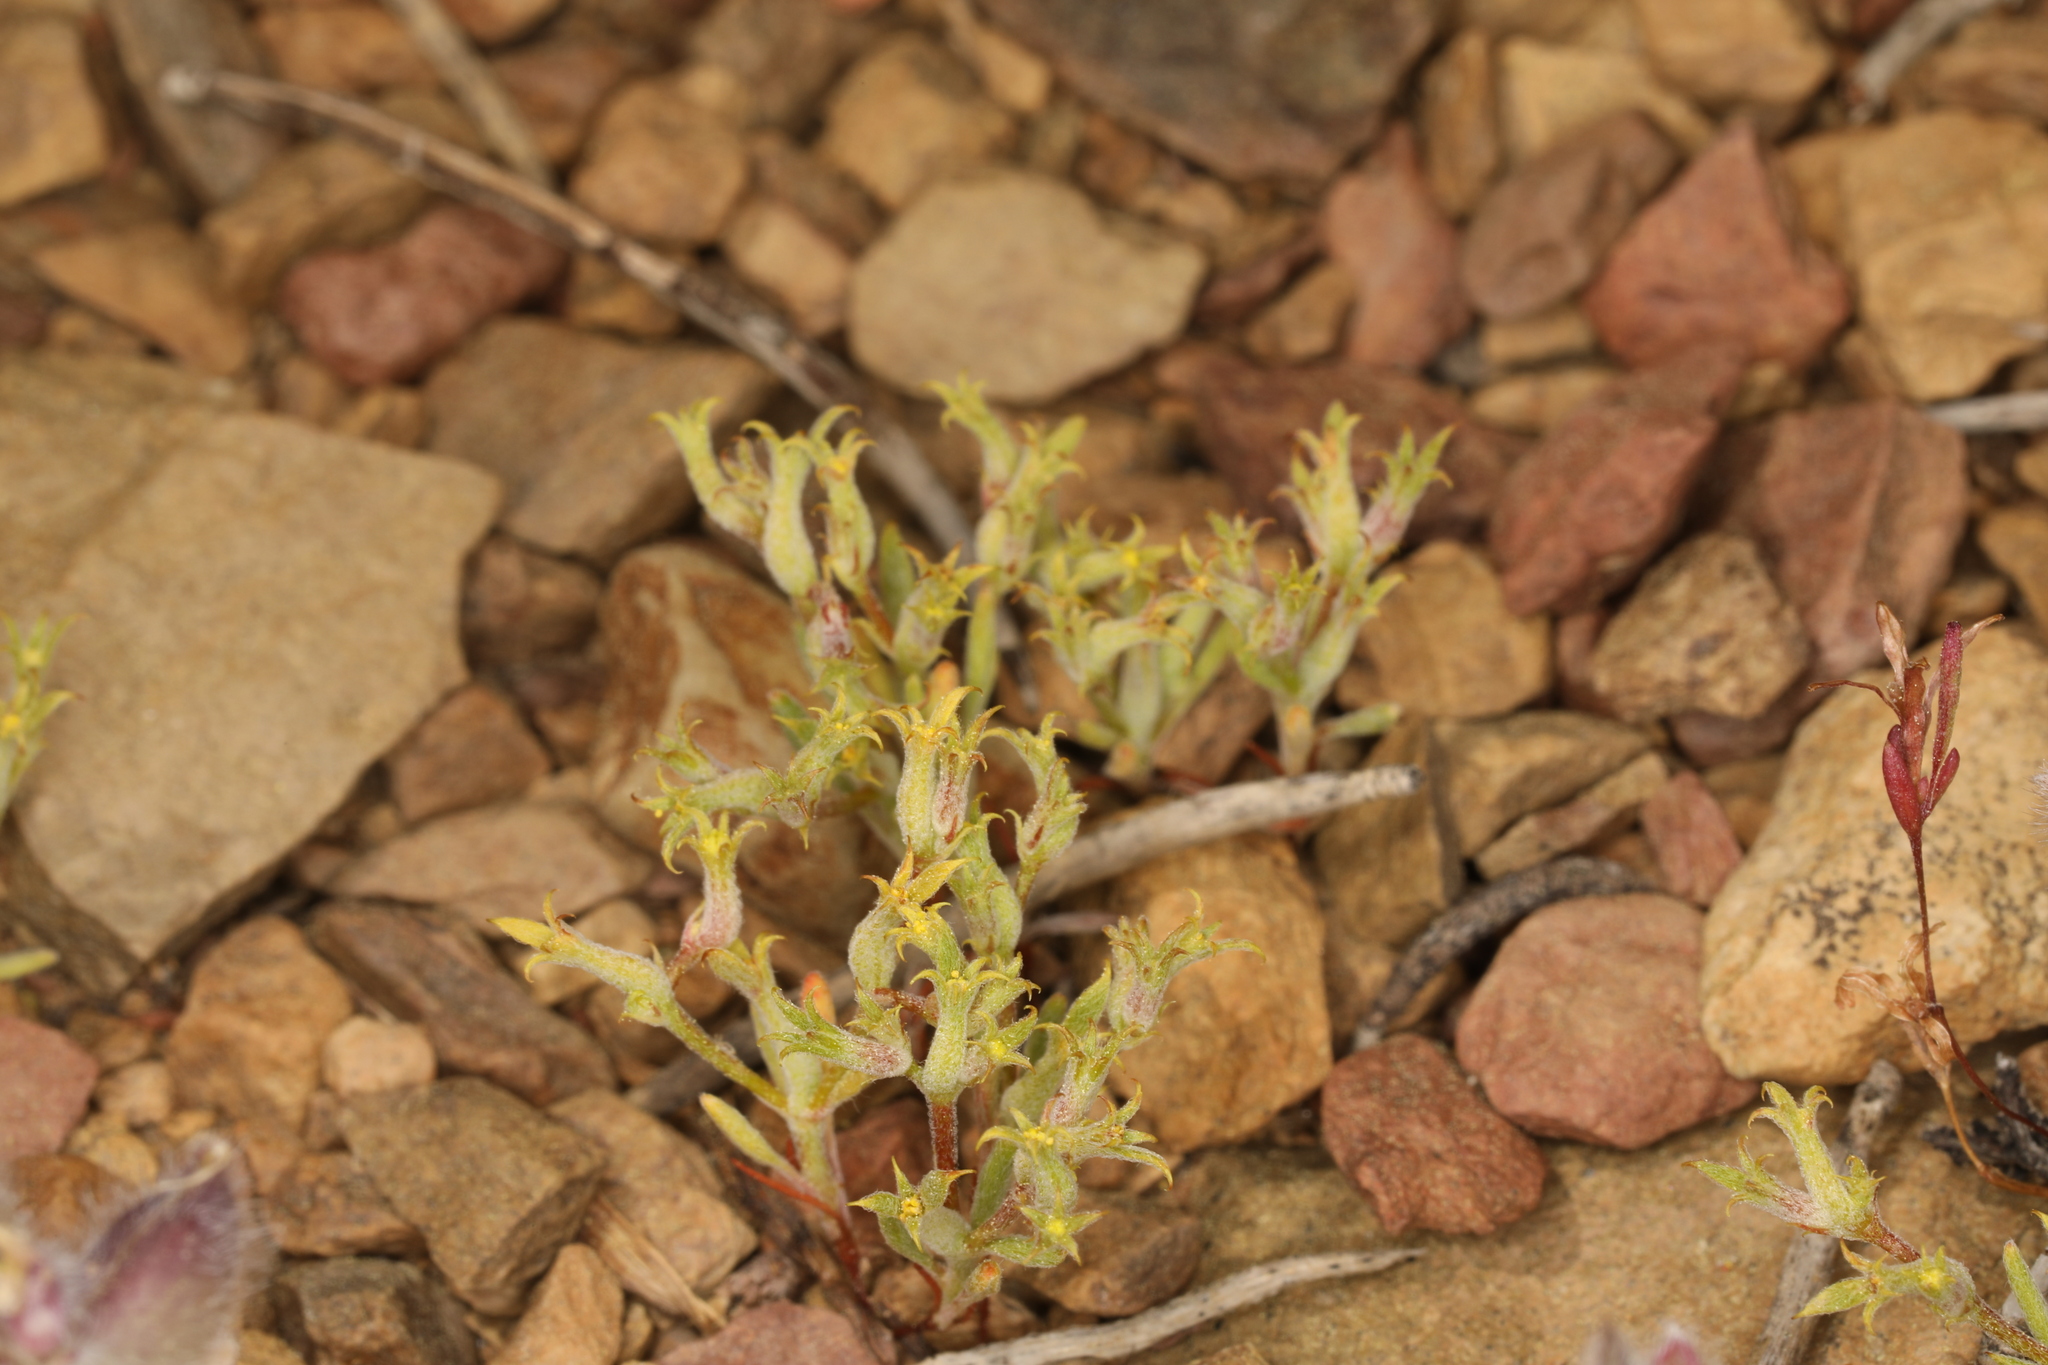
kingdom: Plantae
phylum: Tracheophyta
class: Magnoliopsida
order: Caryophyllales
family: Polygonaceae
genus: Chorizanthe
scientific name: Chorizanthe watsonii
